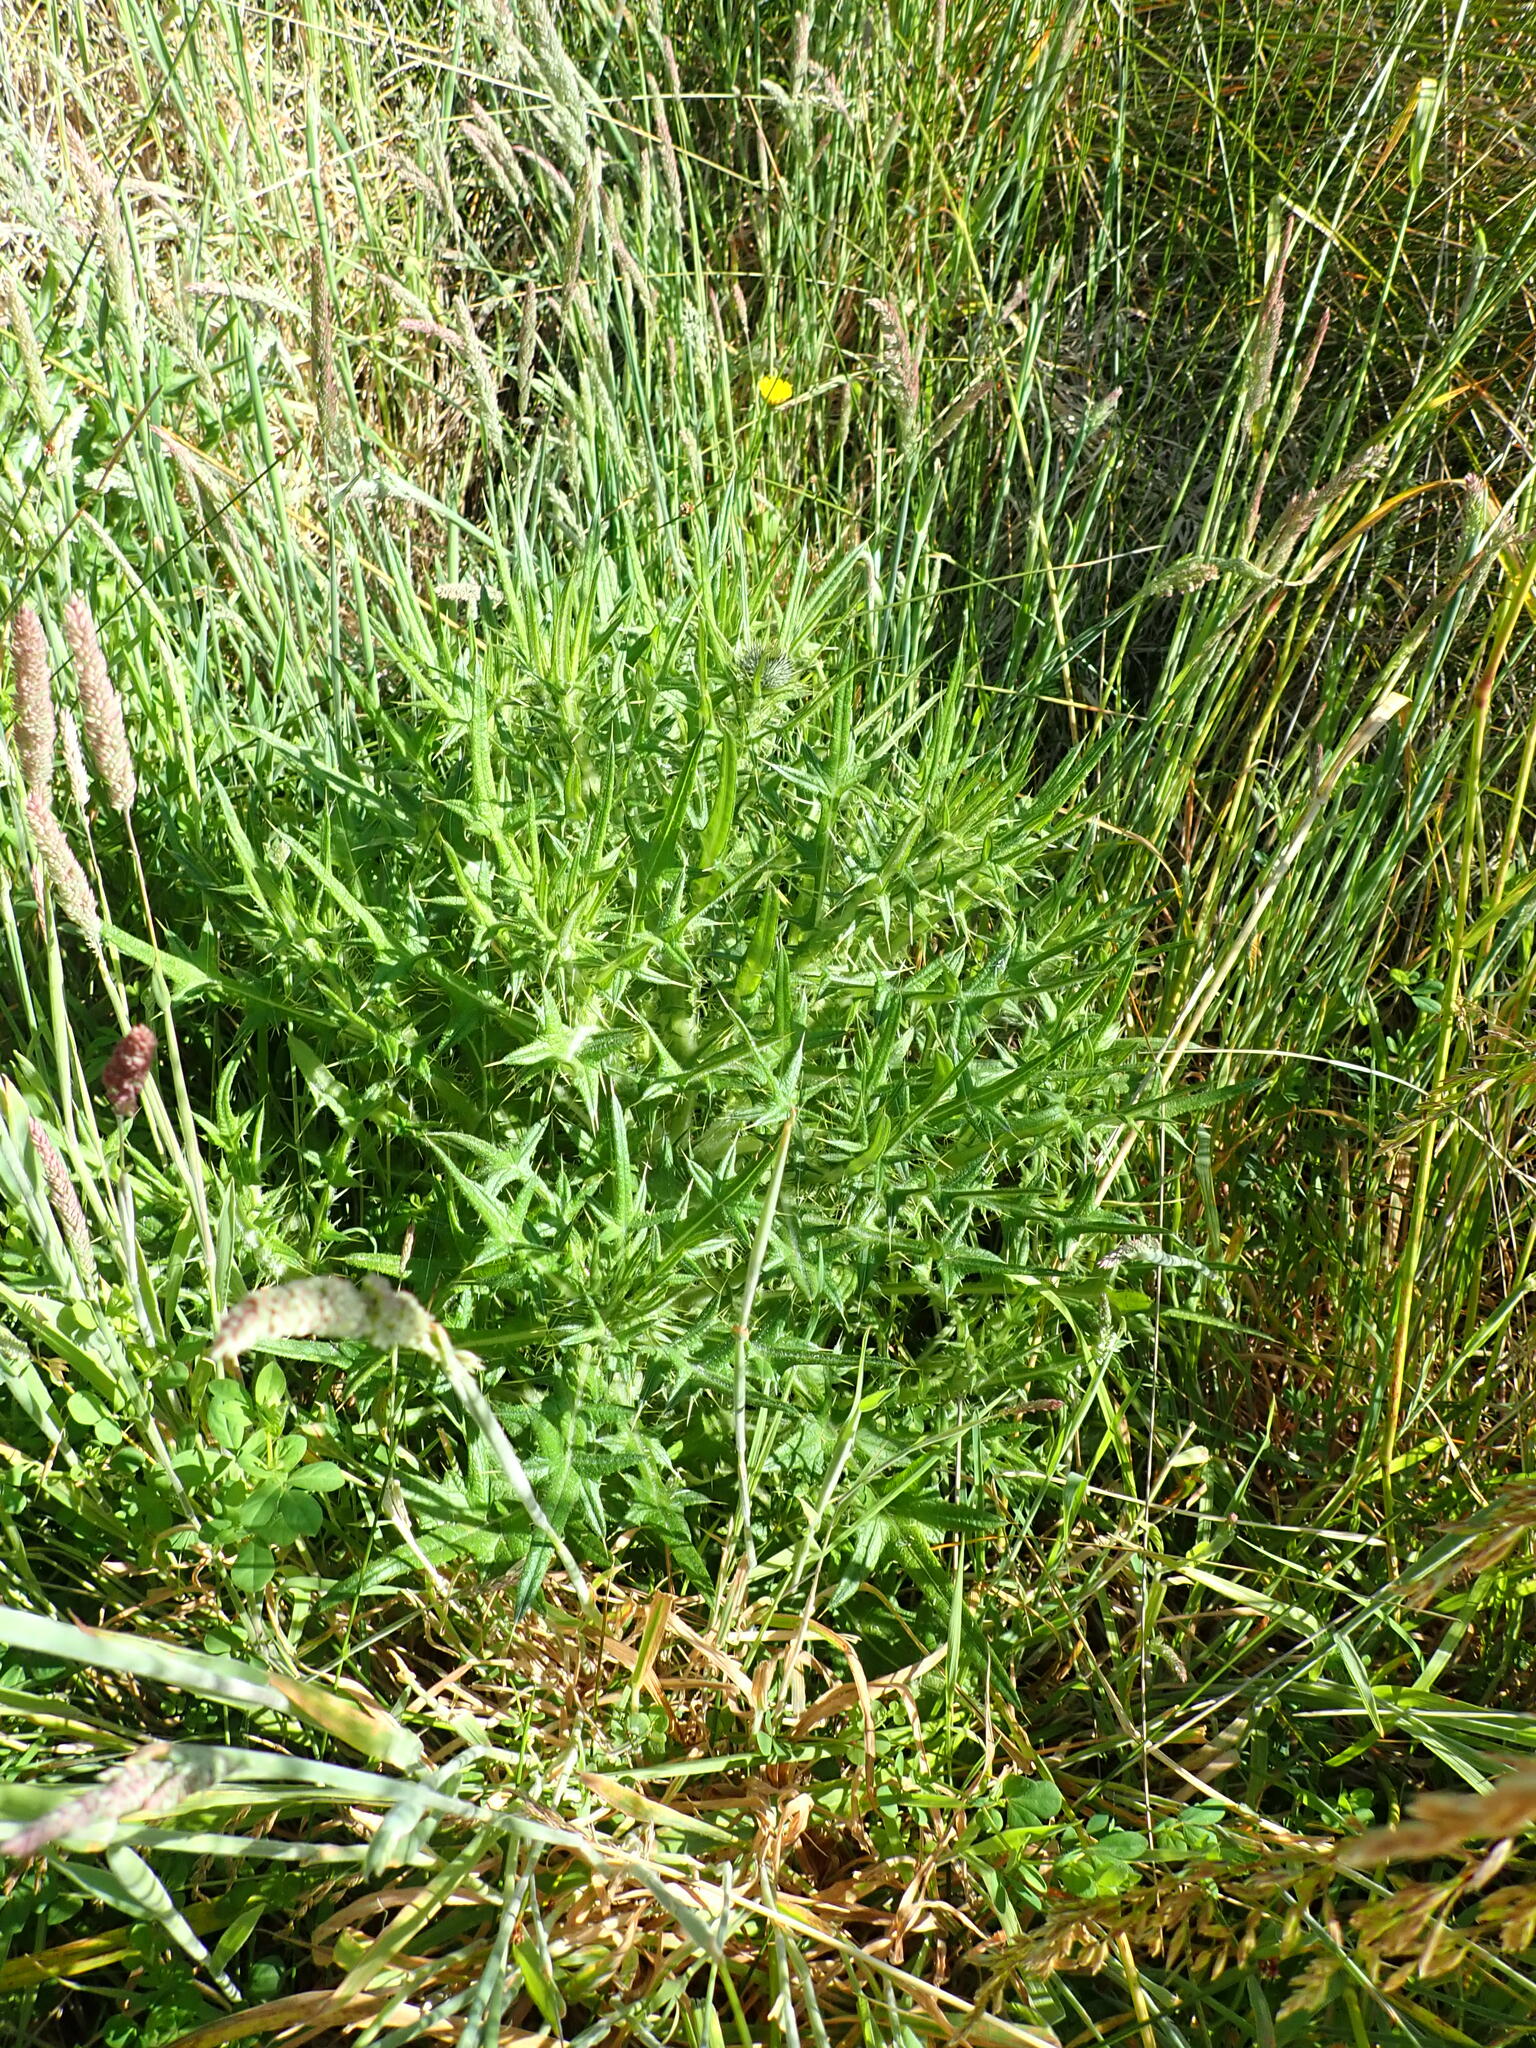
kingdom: Plantae
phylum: Tracheophyta
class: Magnoliopsida
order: Asterales
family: Asteraceae
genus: Cirsium
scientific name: Cirsium vulgare
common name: Bull thistle
